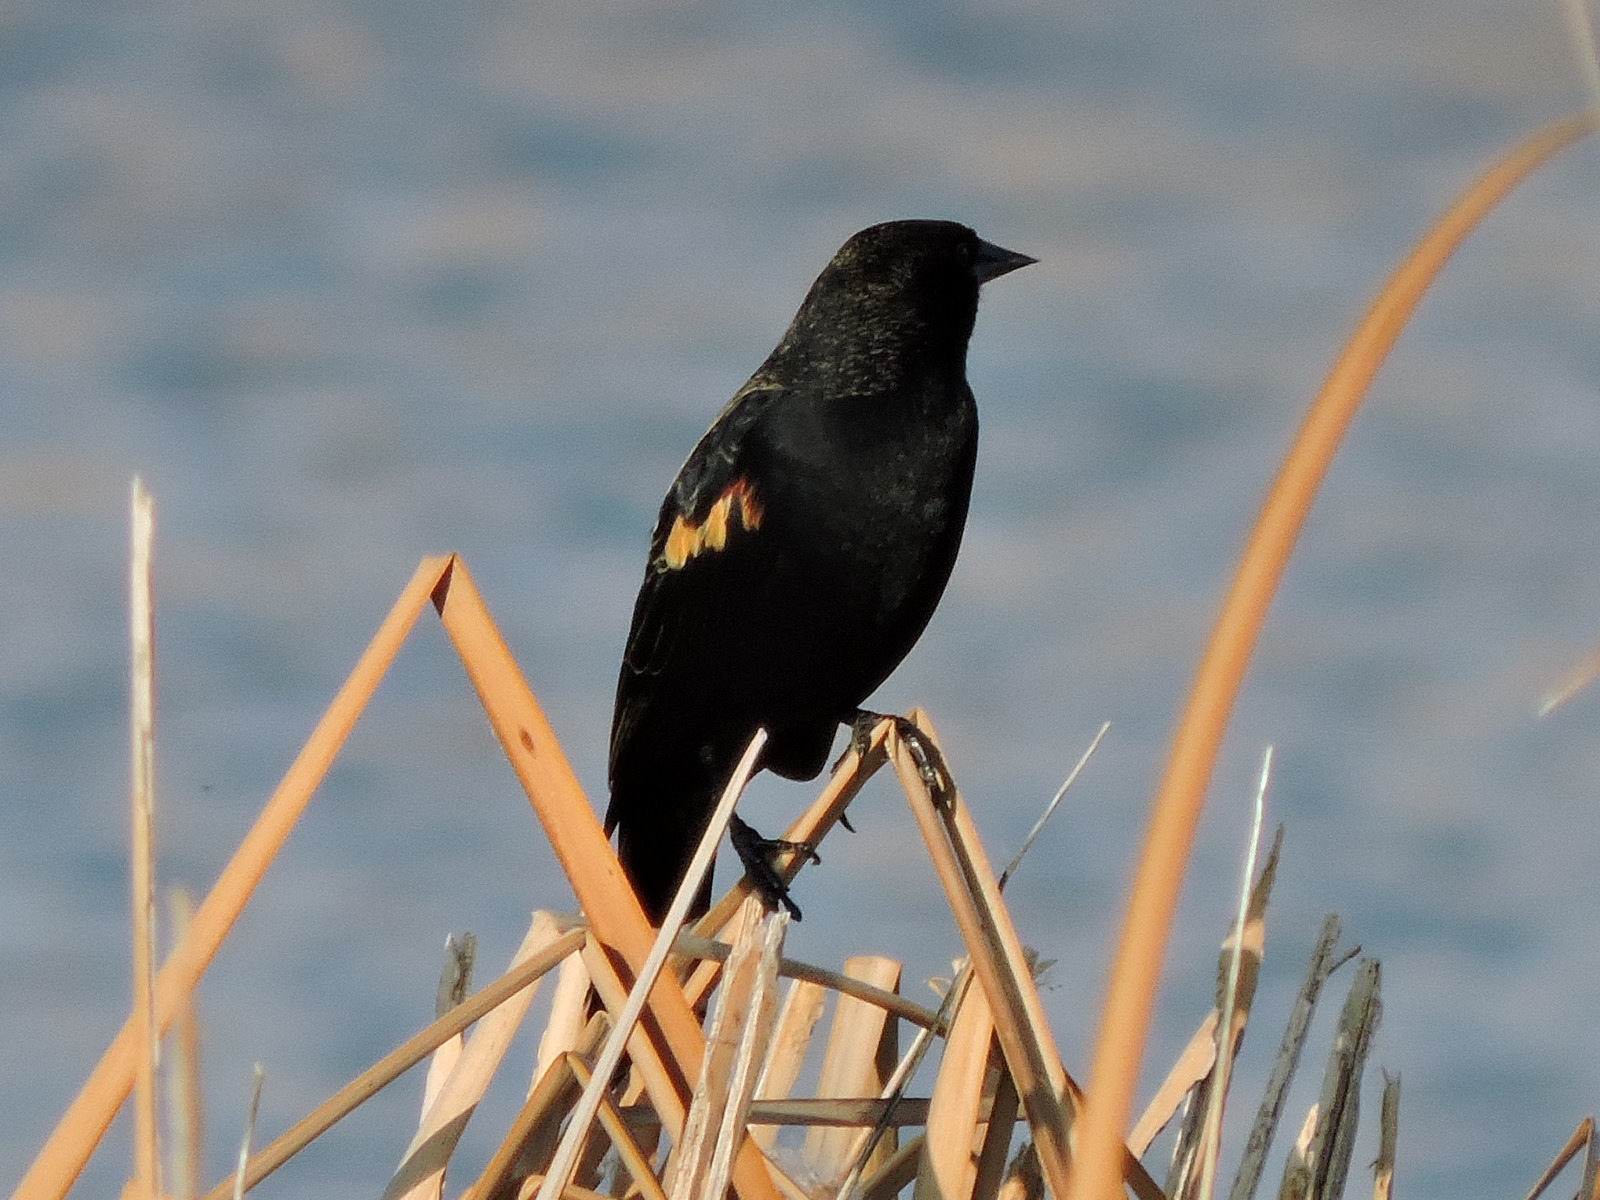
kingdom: Animalia
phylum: Chordata
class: Aves
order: Passeriformes
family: Icteridae
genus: Agelaius
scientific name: Agelaius phoeniceus
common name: Red-winged blackbird
